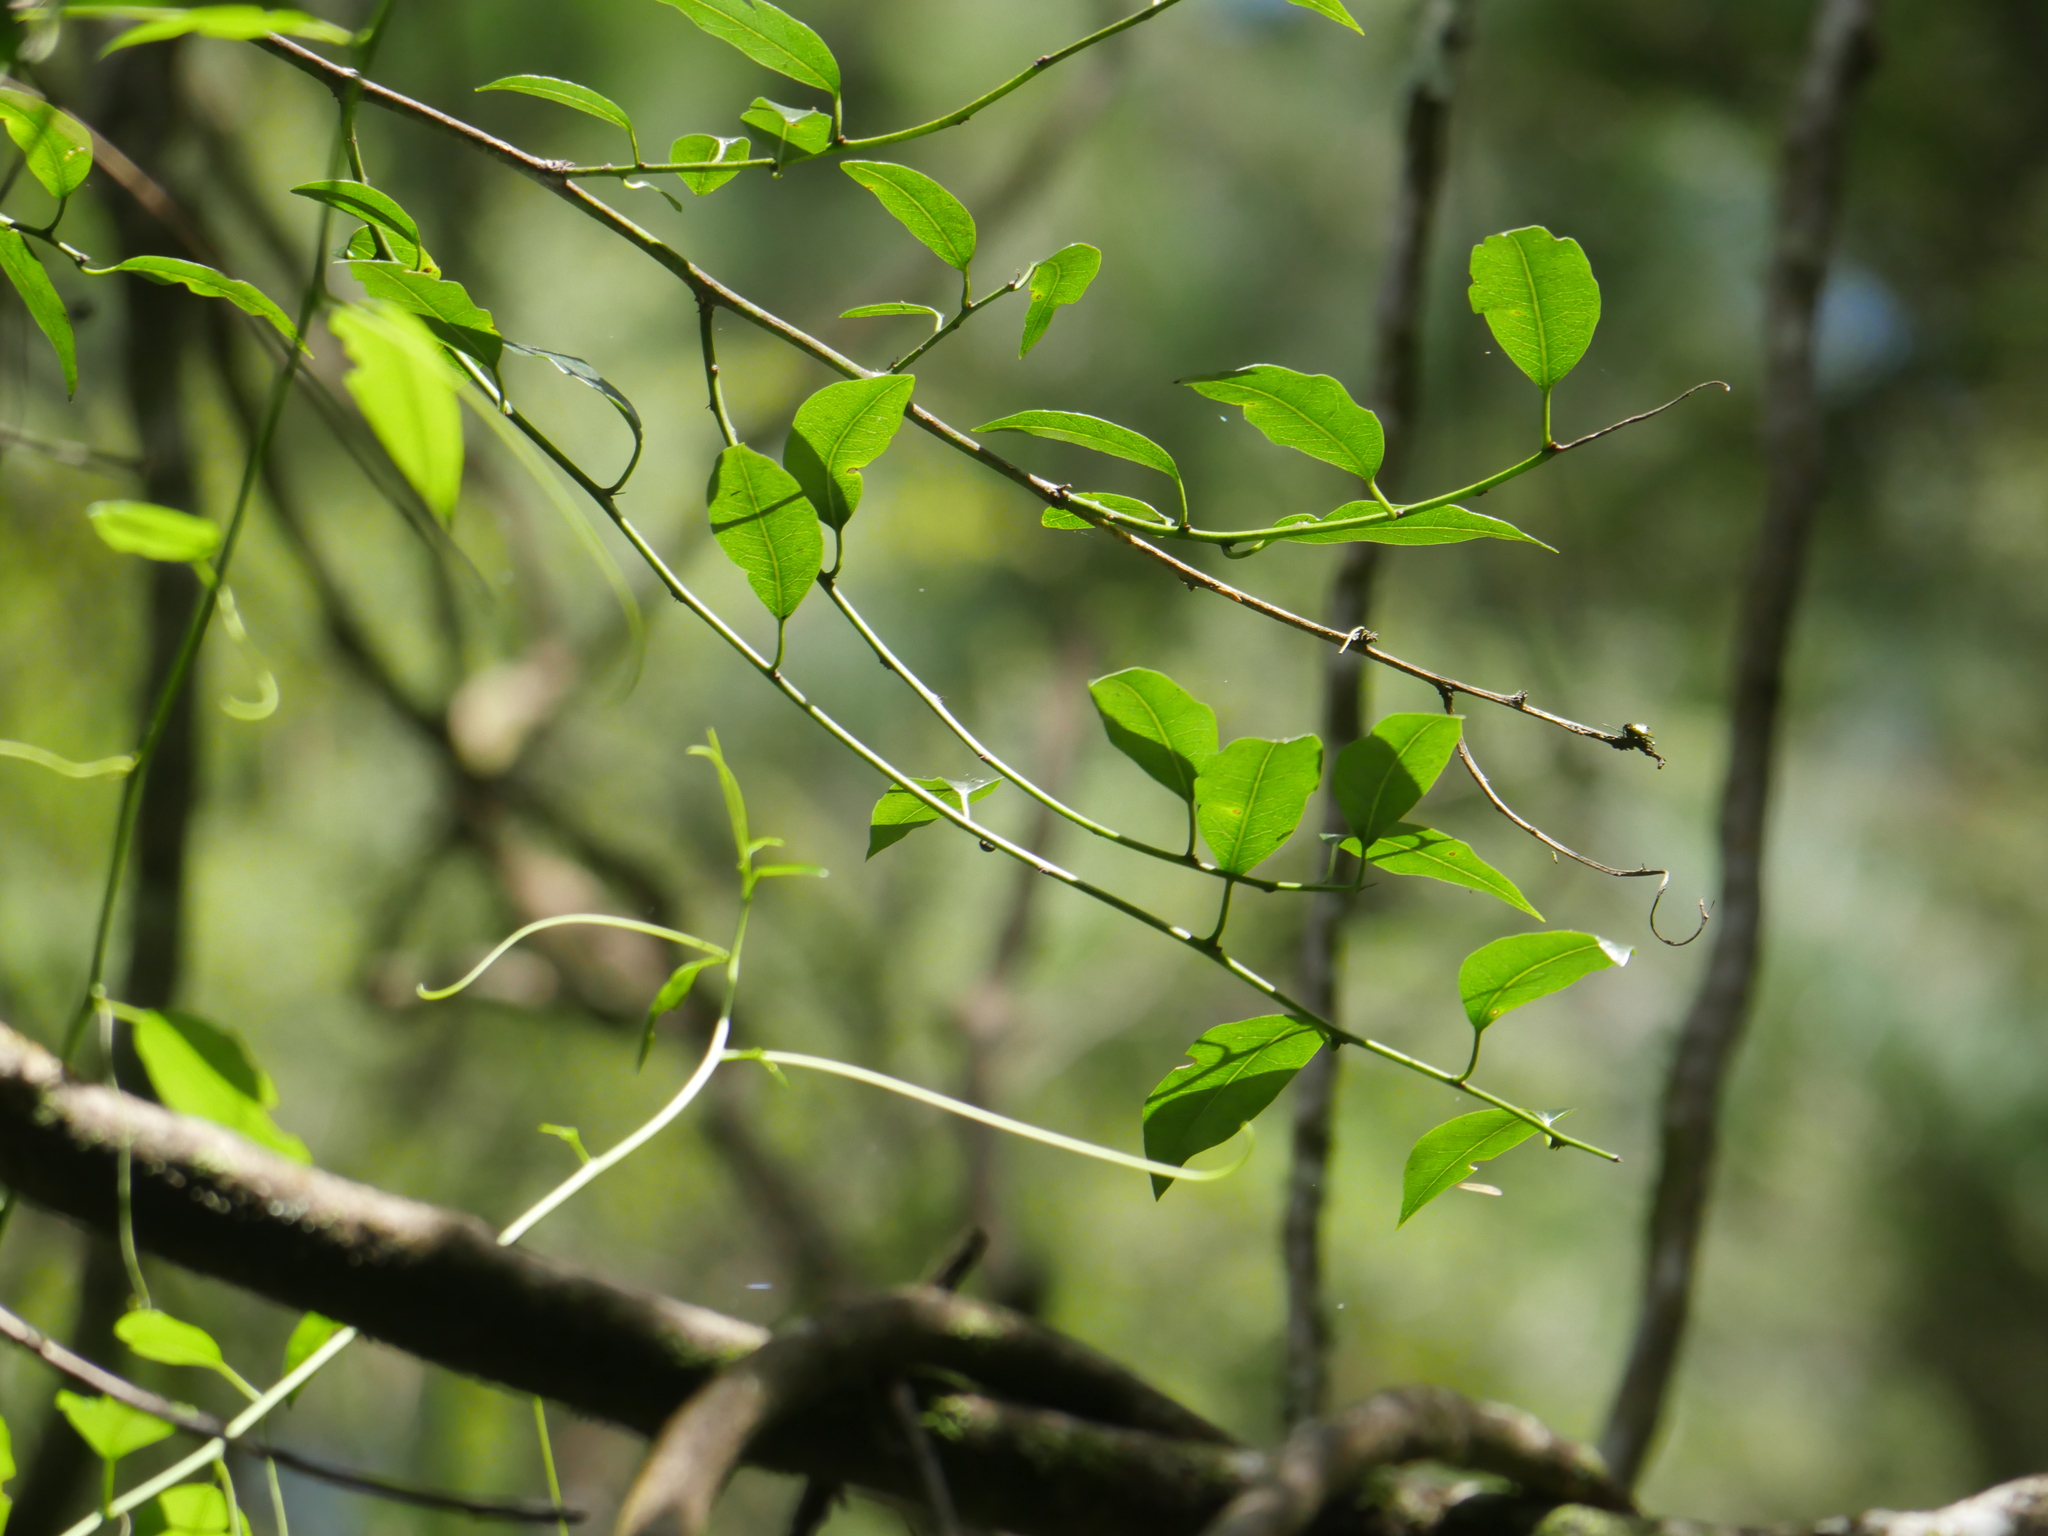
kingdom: Plantae
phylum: Tracheophyta
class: Magnoliopsida
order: Malpighiales
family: Passifloraceae
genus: Passiflora
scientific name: Passiflora tetrandra
